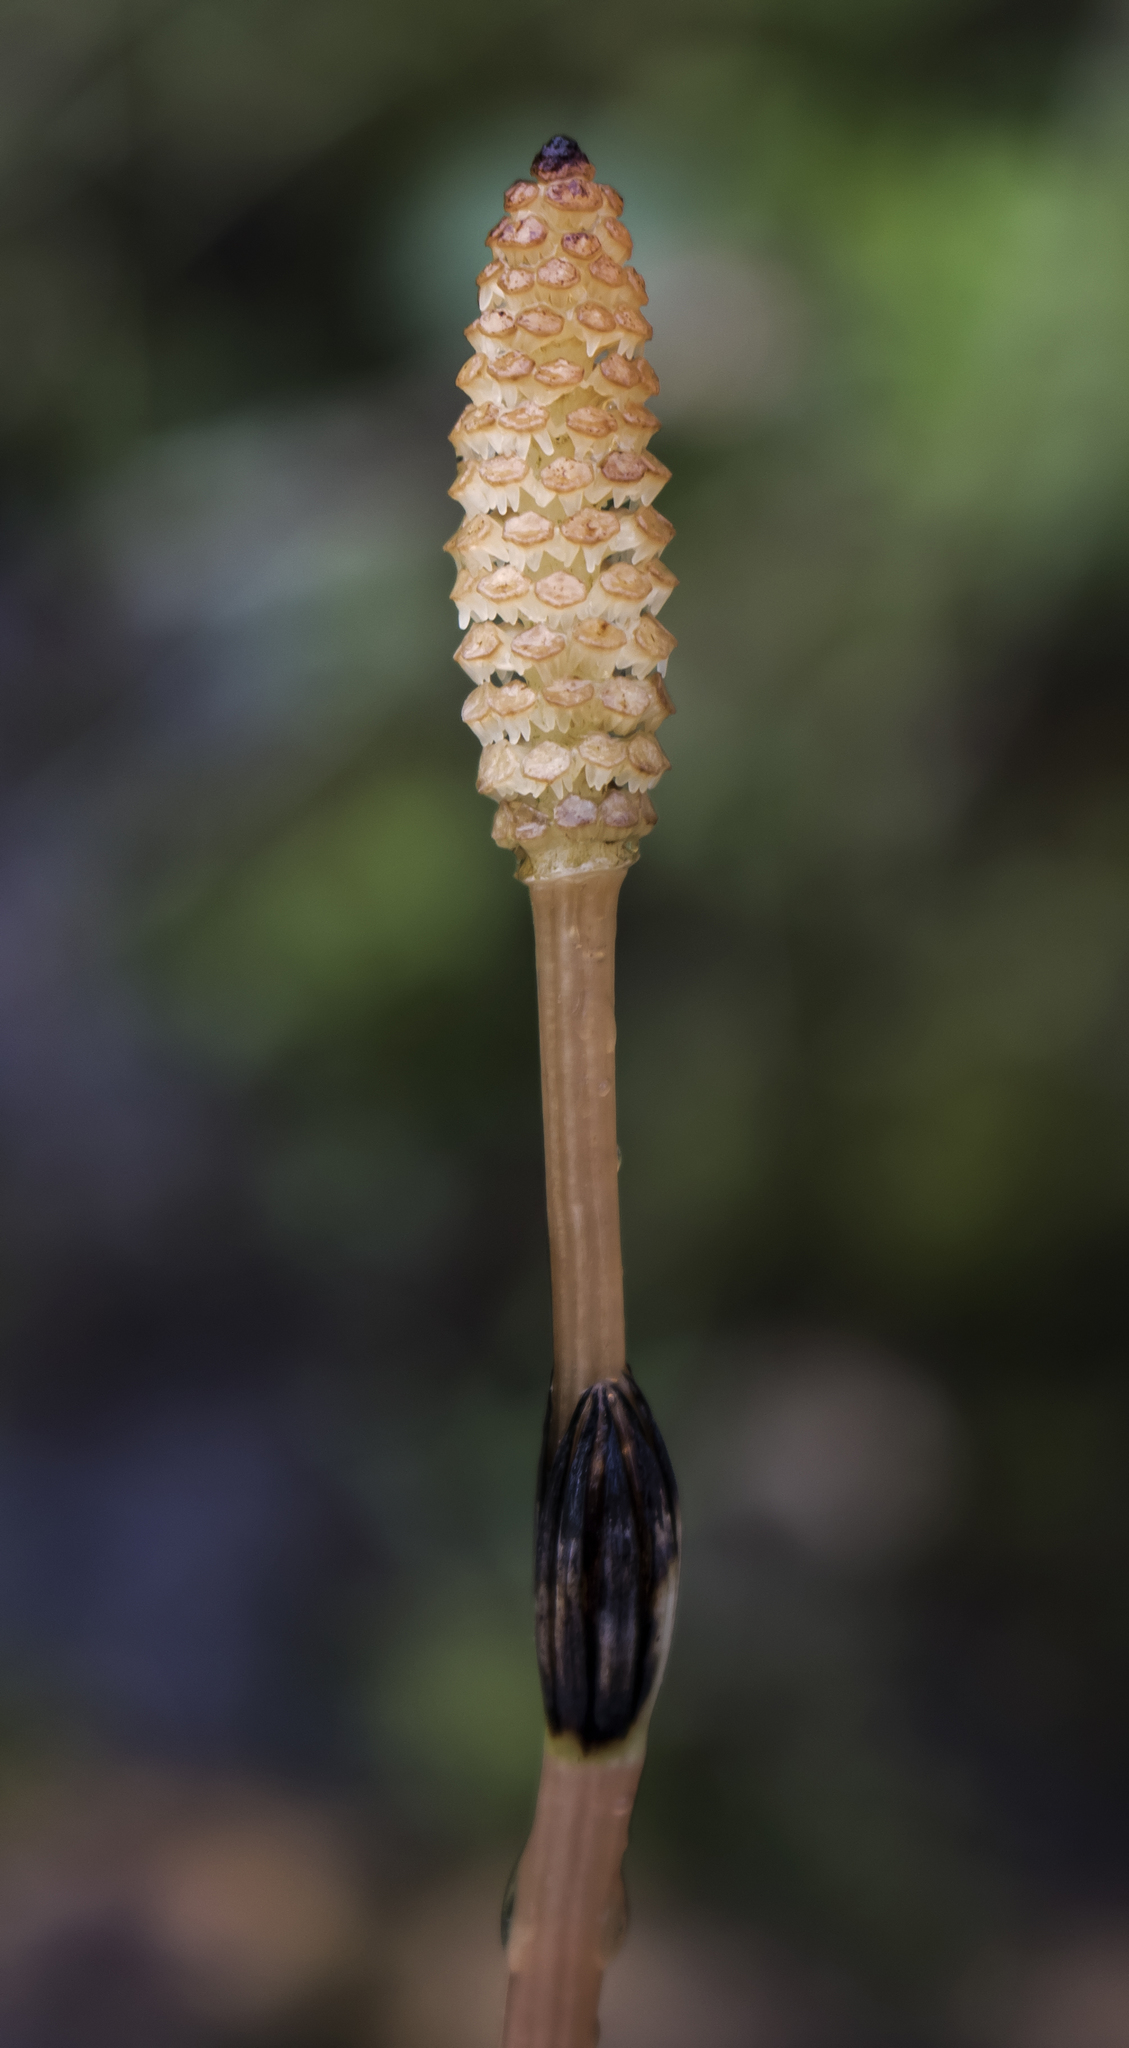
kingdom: Plantae
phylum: Tracheophyta
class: Polypodiopsida
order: Equisetales
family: Equisetaceae
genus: Equisetum
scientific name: Equisetum arvense
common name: Field horsetail
